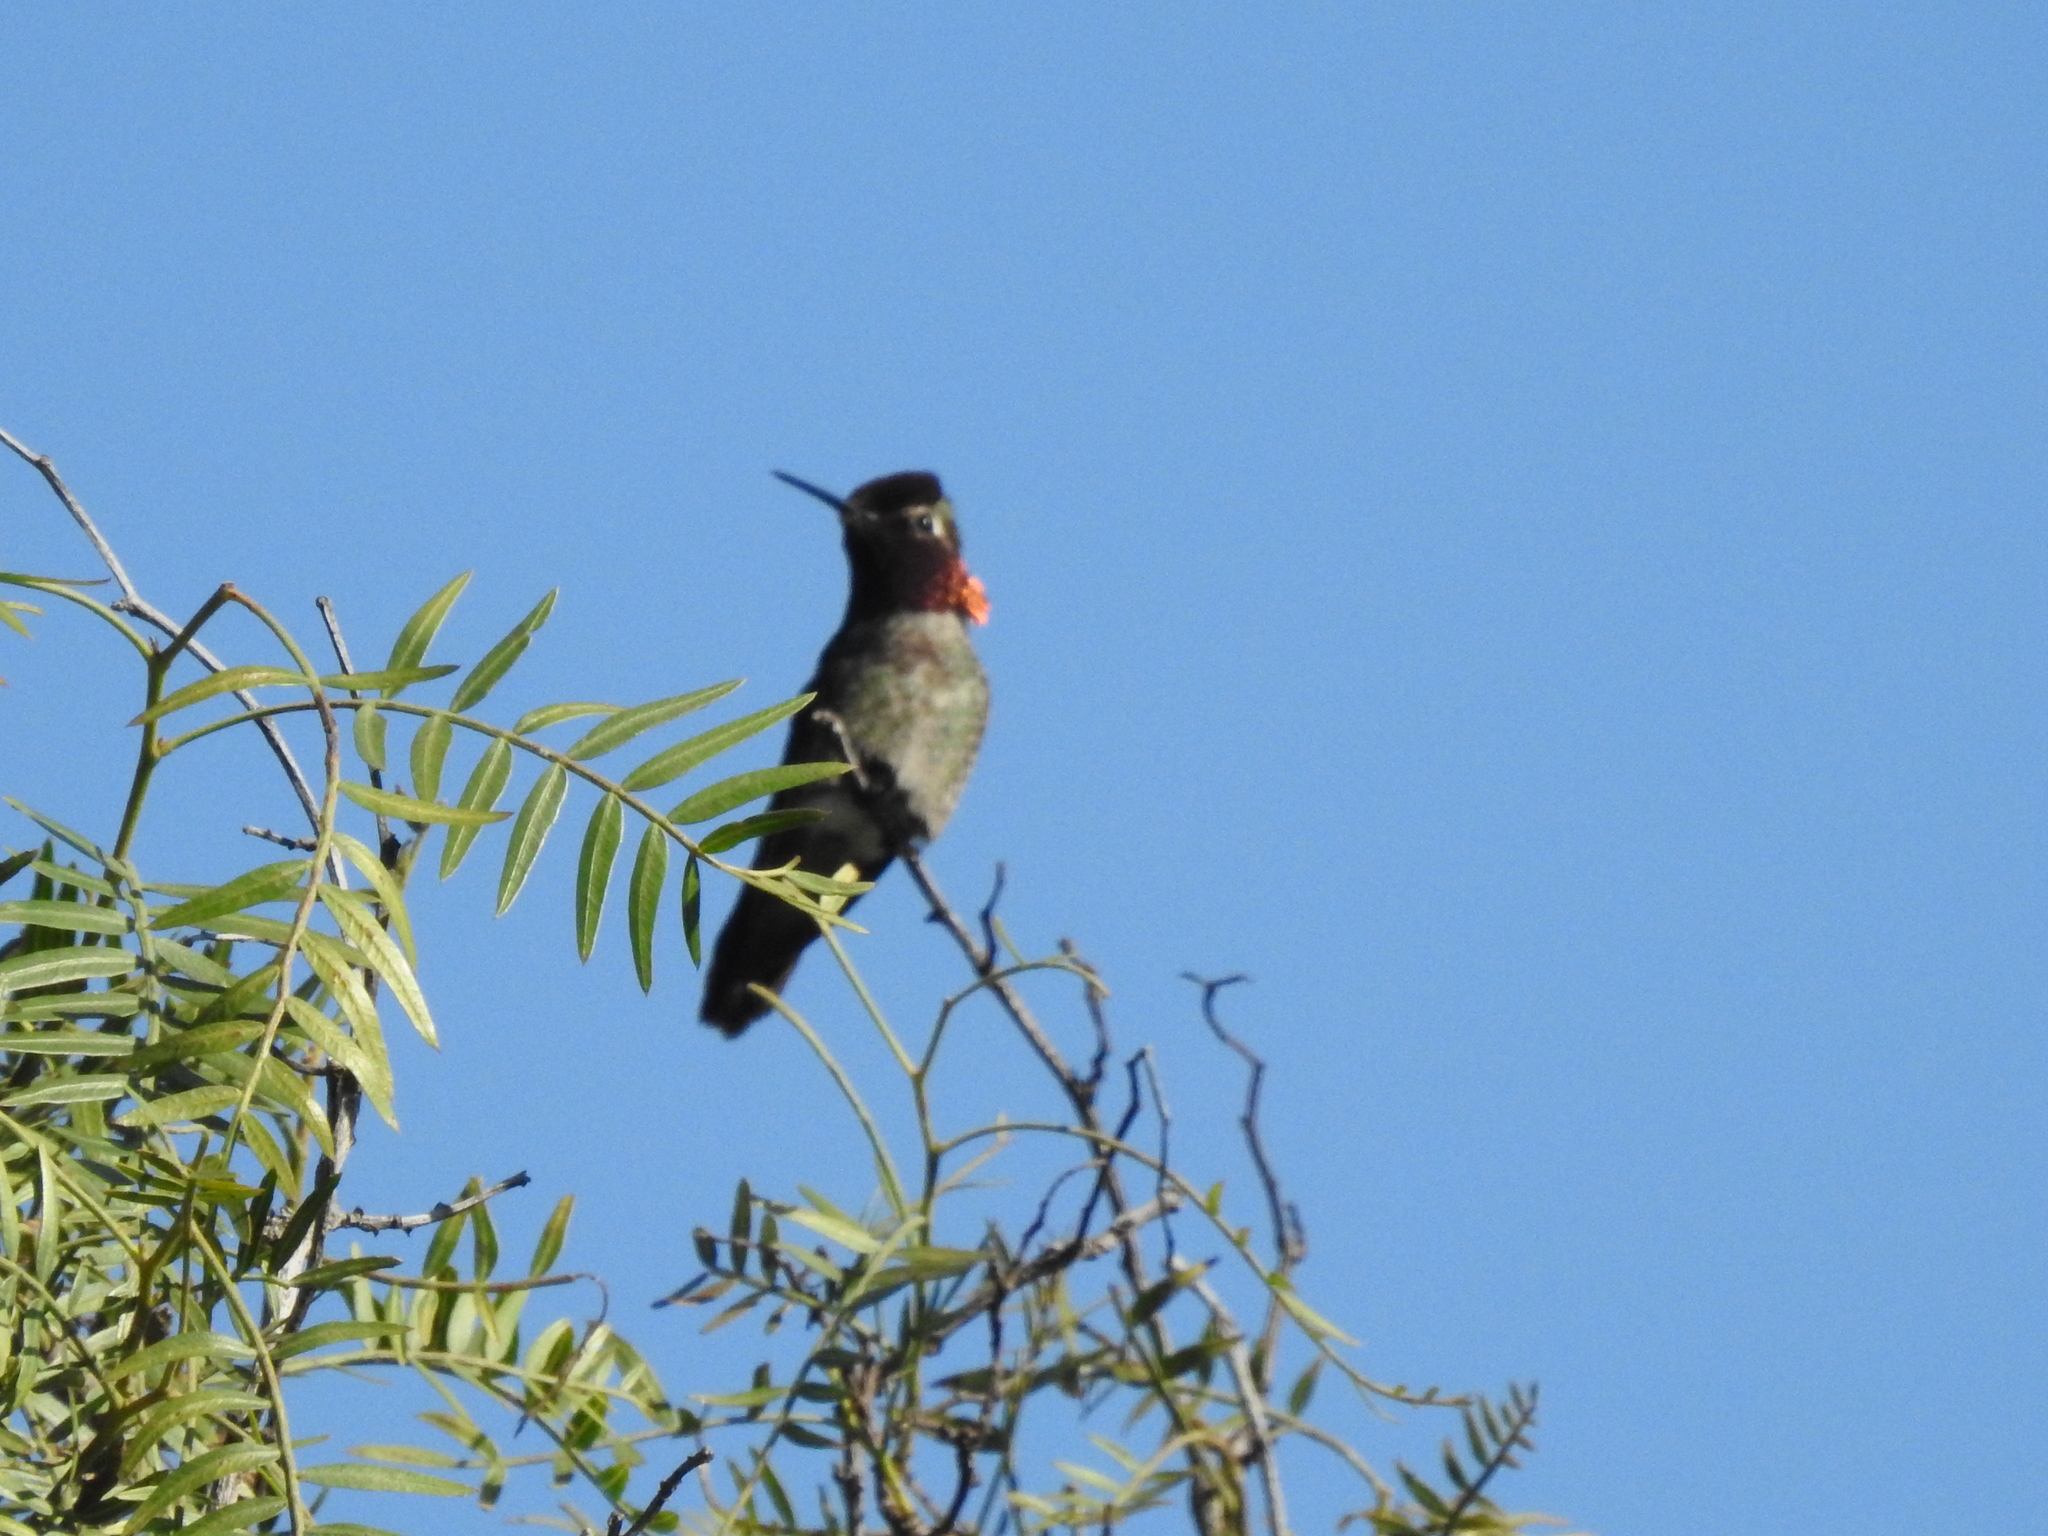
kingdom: Animalia
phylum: Chordata
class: Aves
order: Apodiformes
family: Trochilidae
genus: Calypte
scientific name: Calypte anna
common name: Anna's hummingbird
